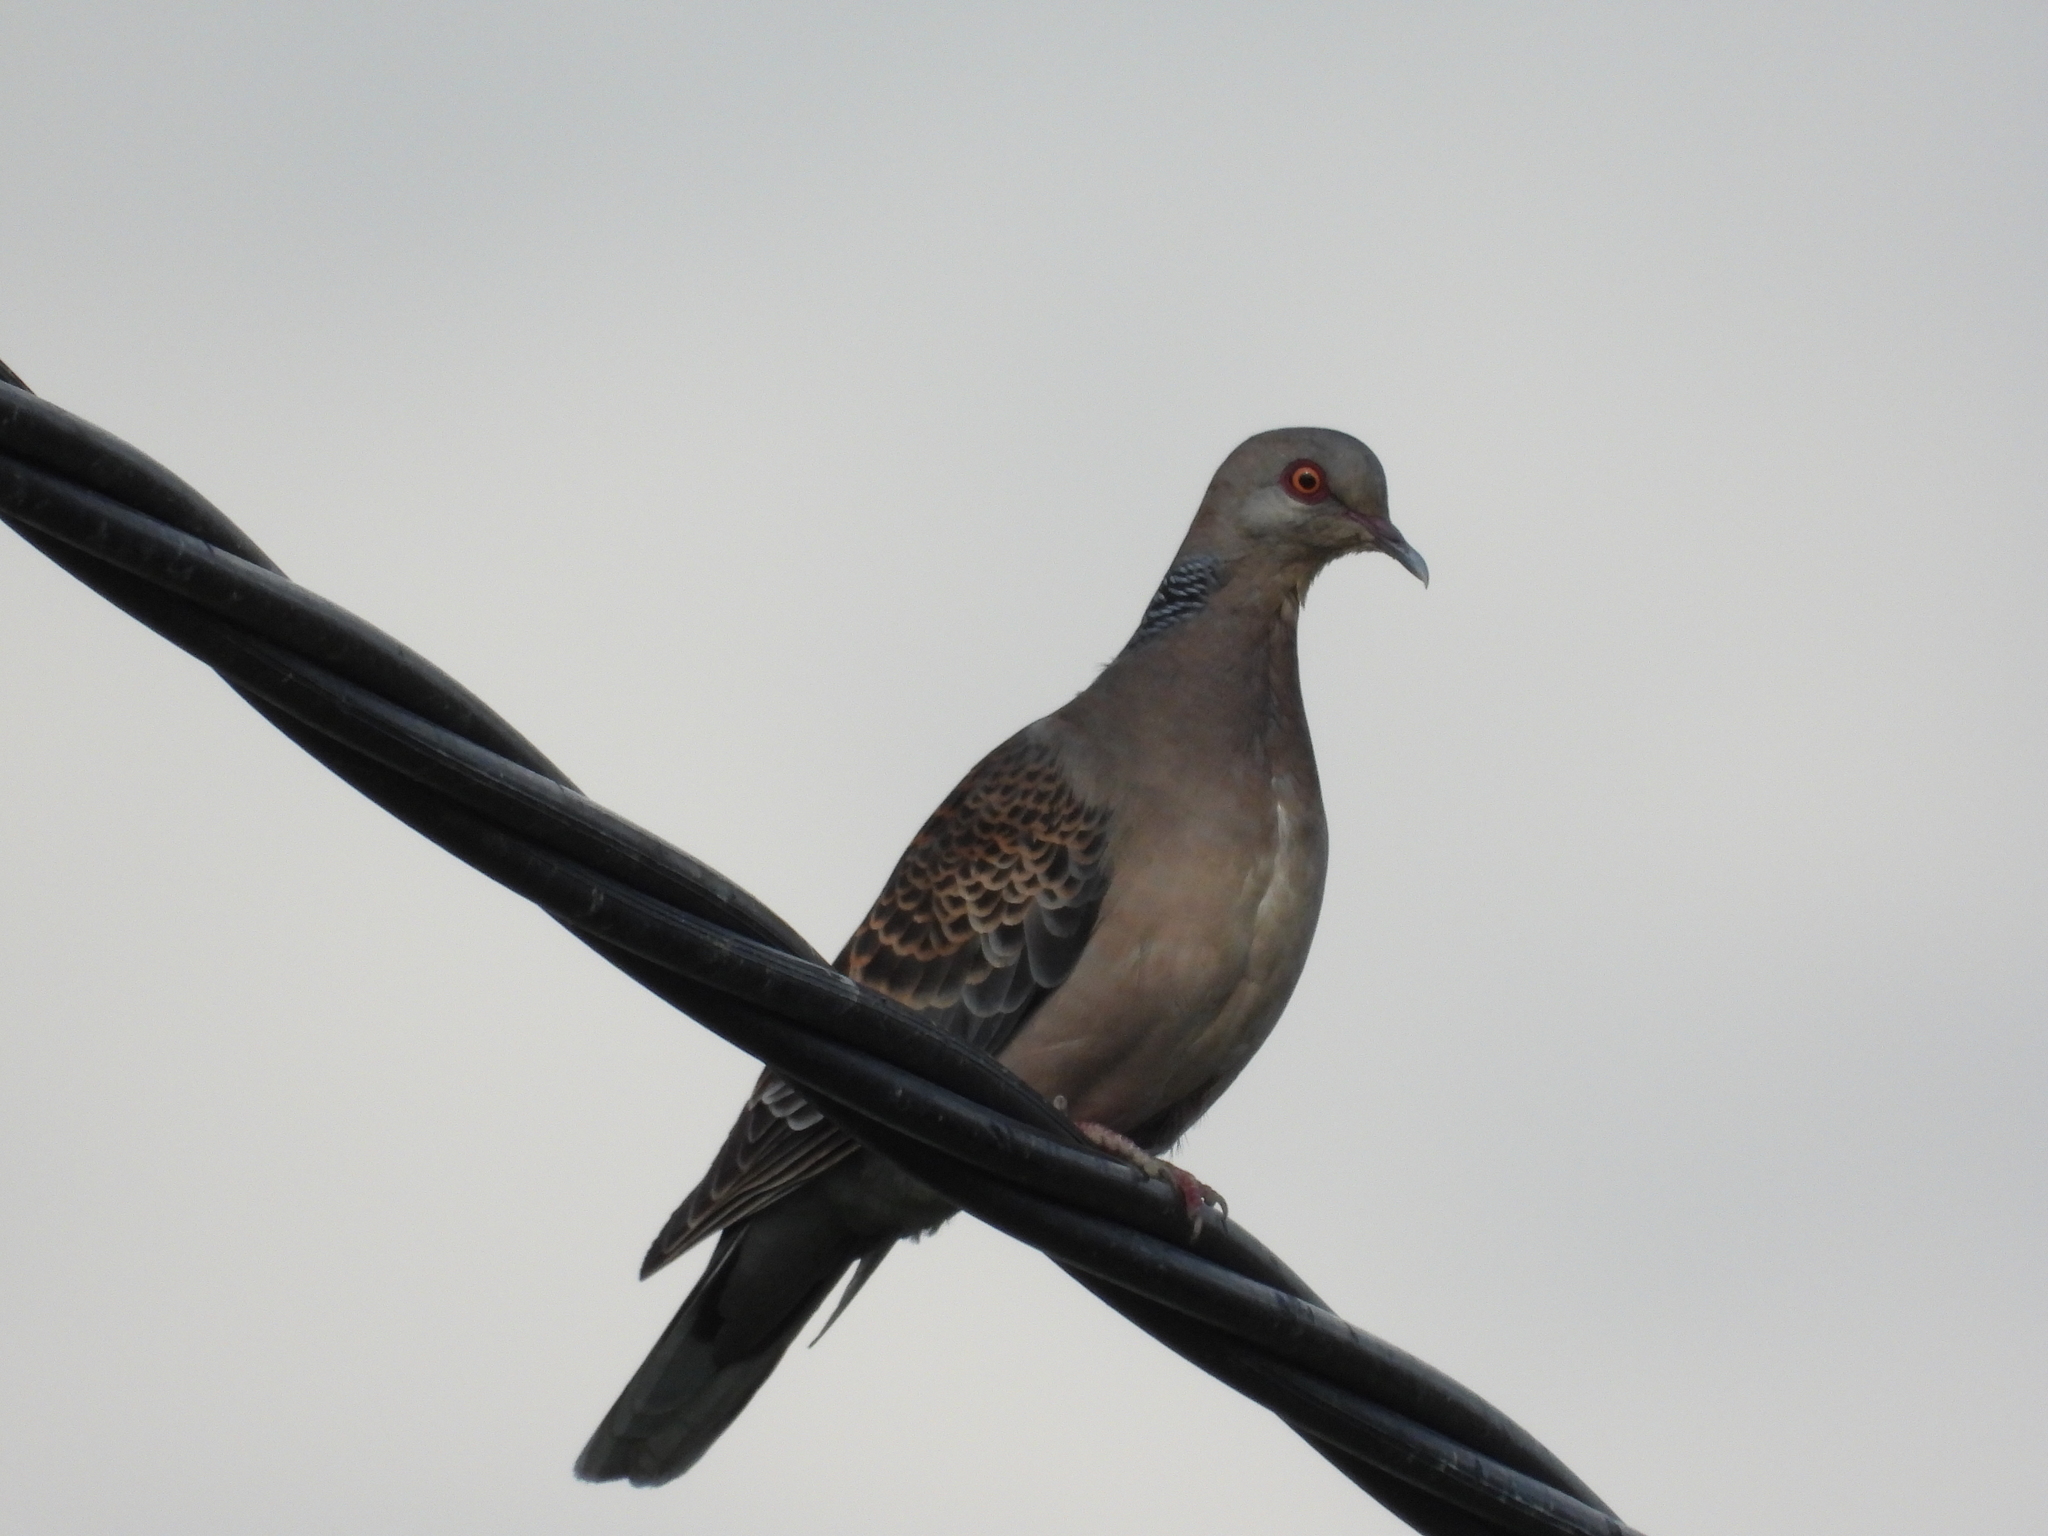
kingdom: Animalia
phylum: Chordata
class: Aves
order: Columbiformes
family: Columbidae
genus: Streptopelia
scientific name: Streptopelia orientalis
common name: Oriental turtle dove
